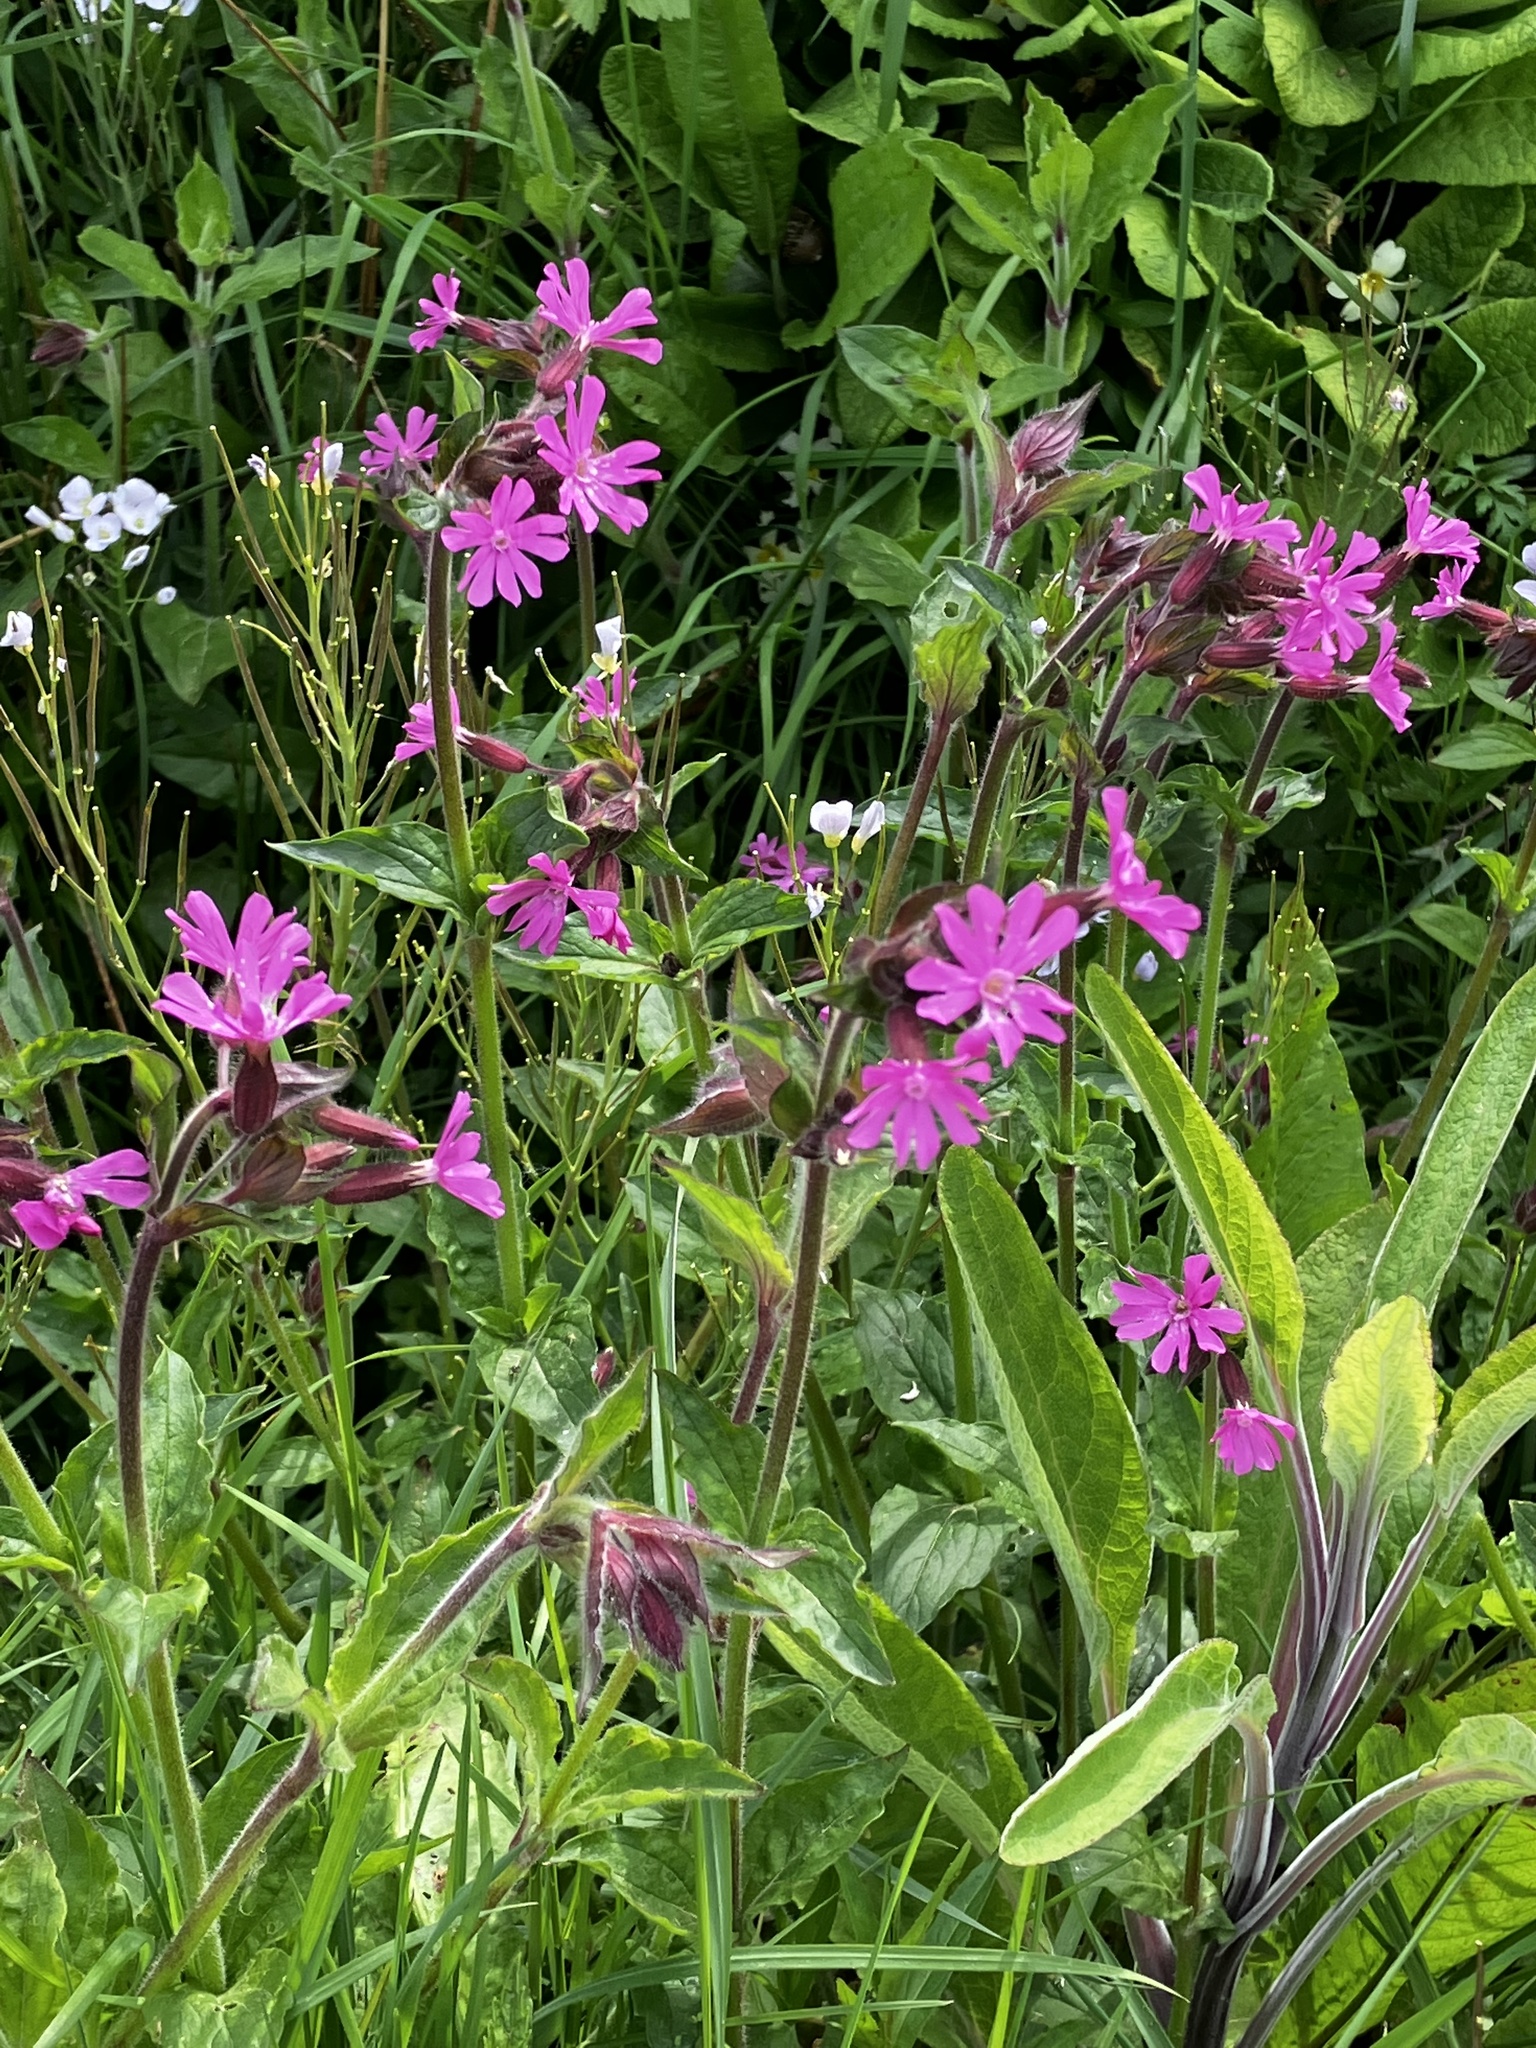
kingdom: Plantae
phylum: Tracheophyta
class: Magnoliopsida
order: Caryophyllales
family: Caryophyllaceae
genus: Silene
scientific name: Silene dioica
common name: Red campion
